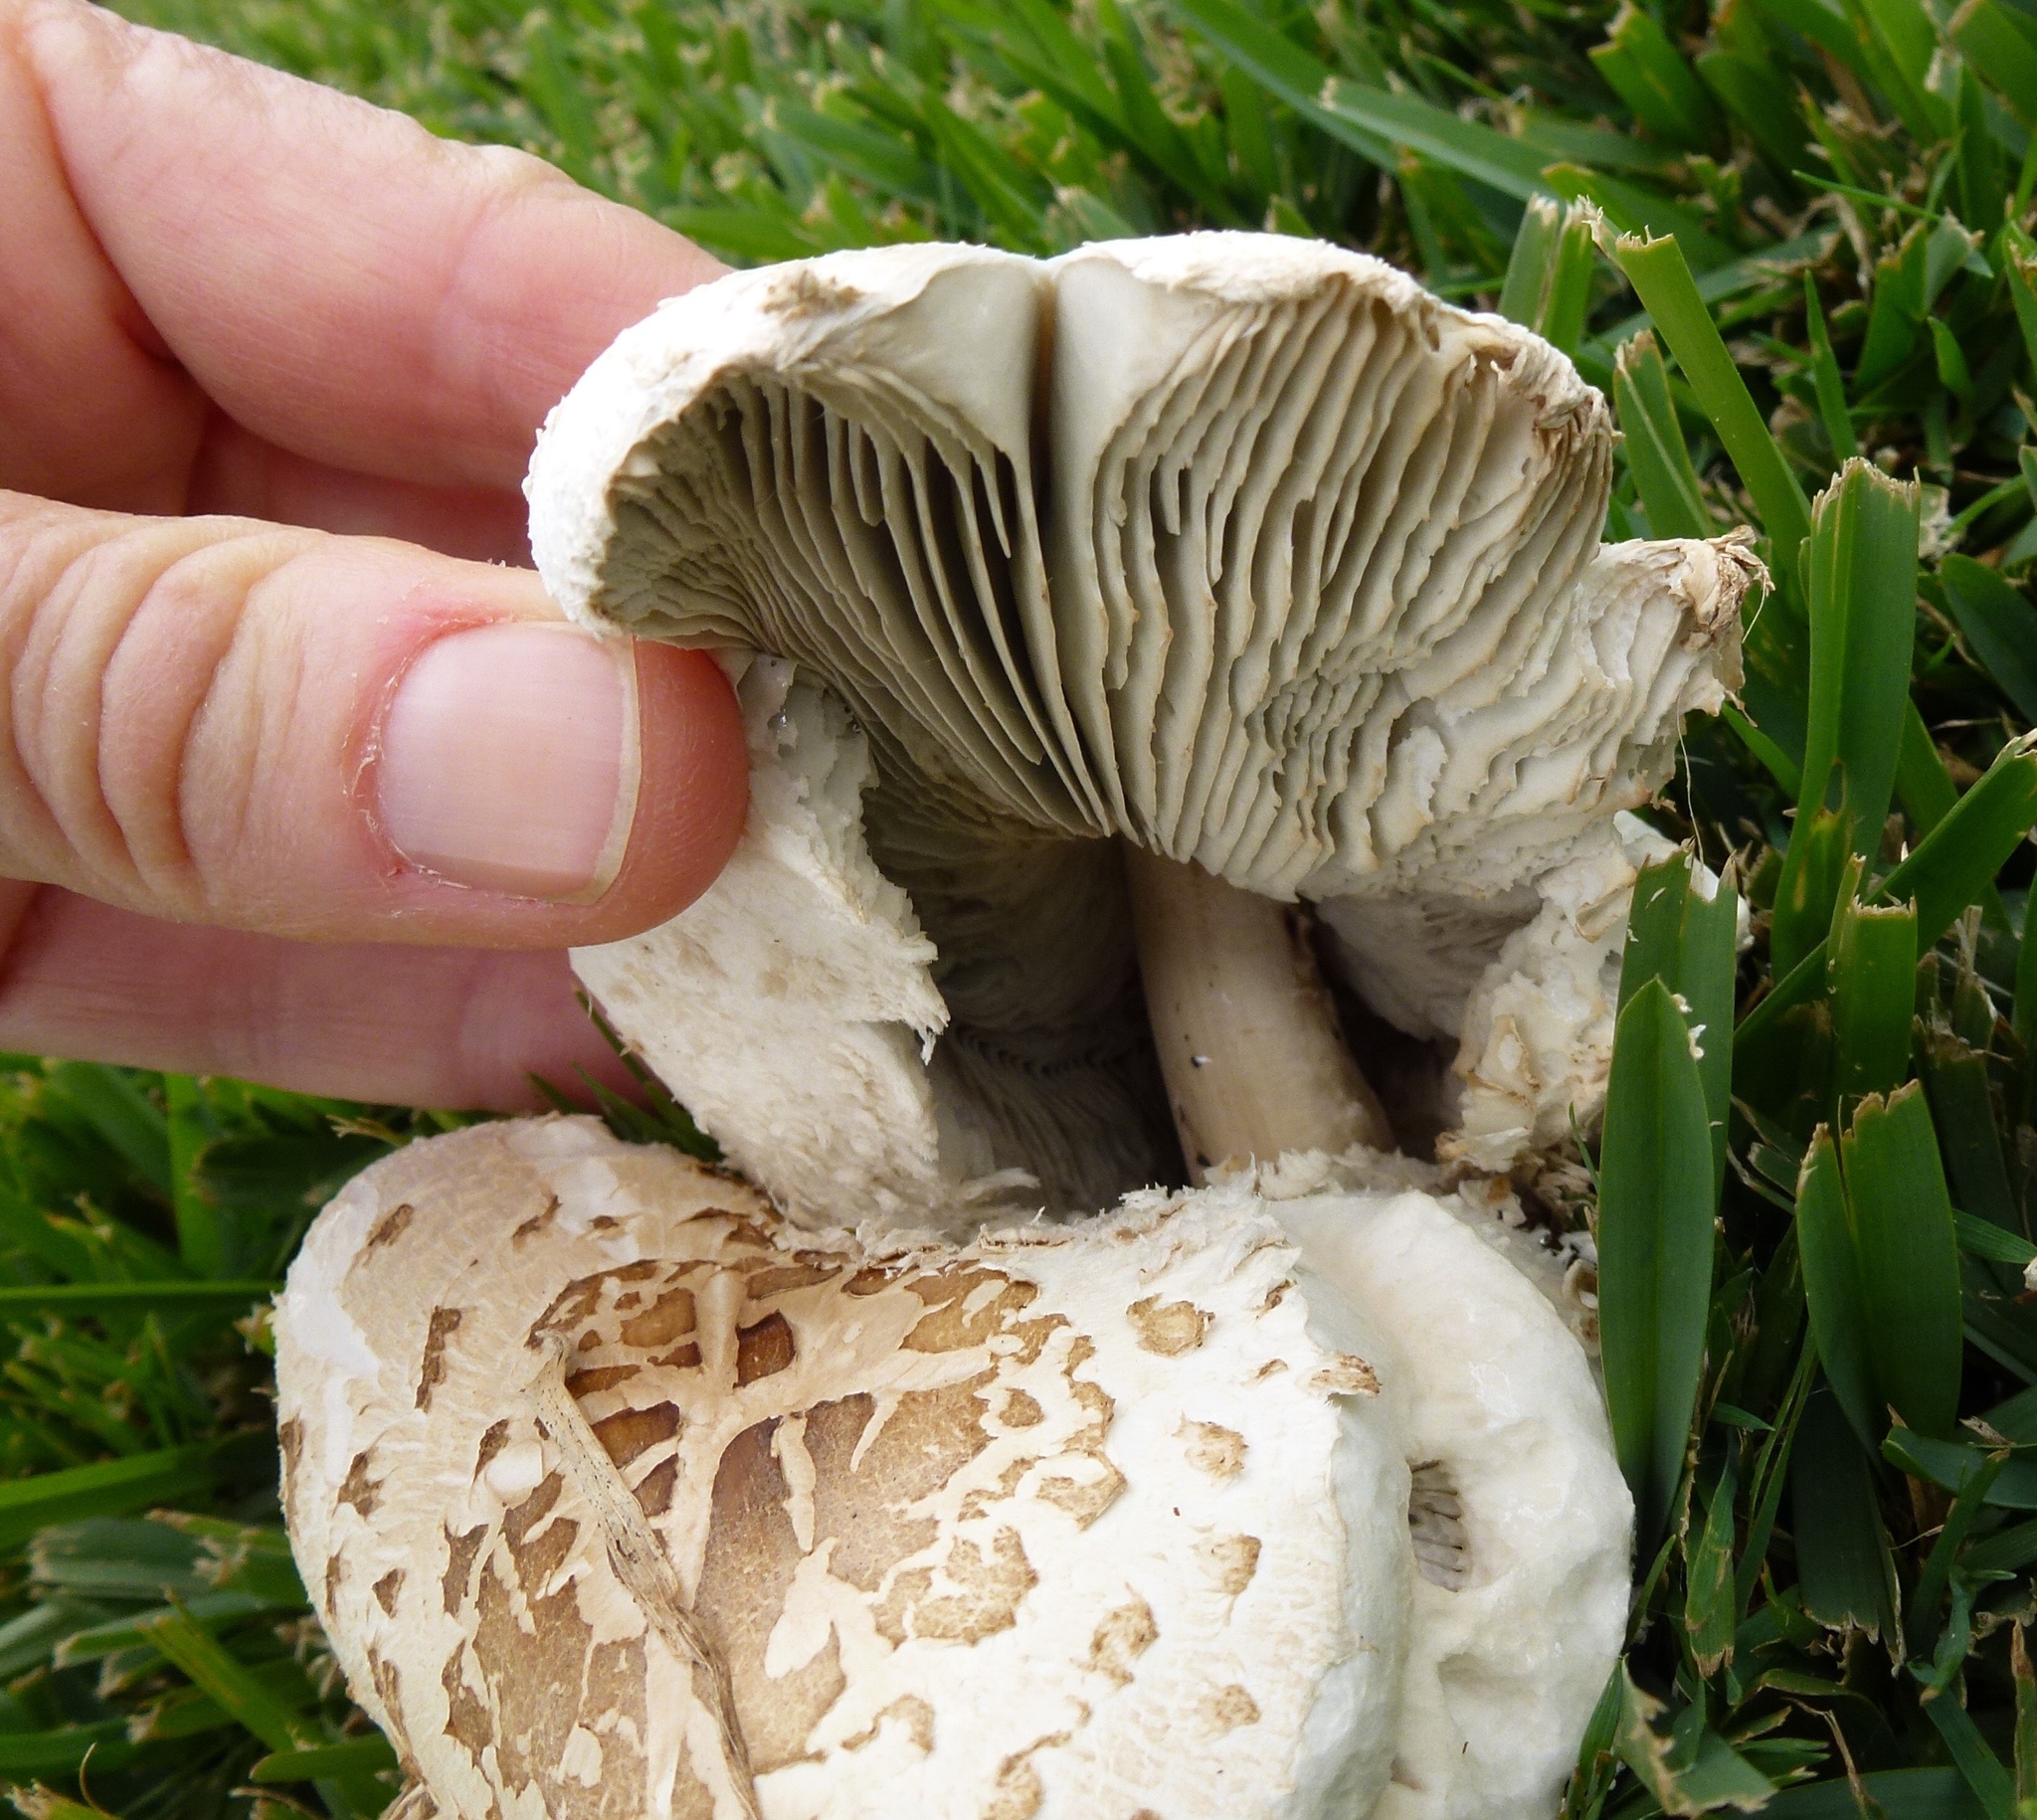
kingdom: Fungi
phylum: Basidiomycota
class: Agaricomycetes
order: Agaricales
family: Agaricaceae
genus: Chlorophyllum
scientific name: Chlorophyllum molybdites
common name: False parasol
